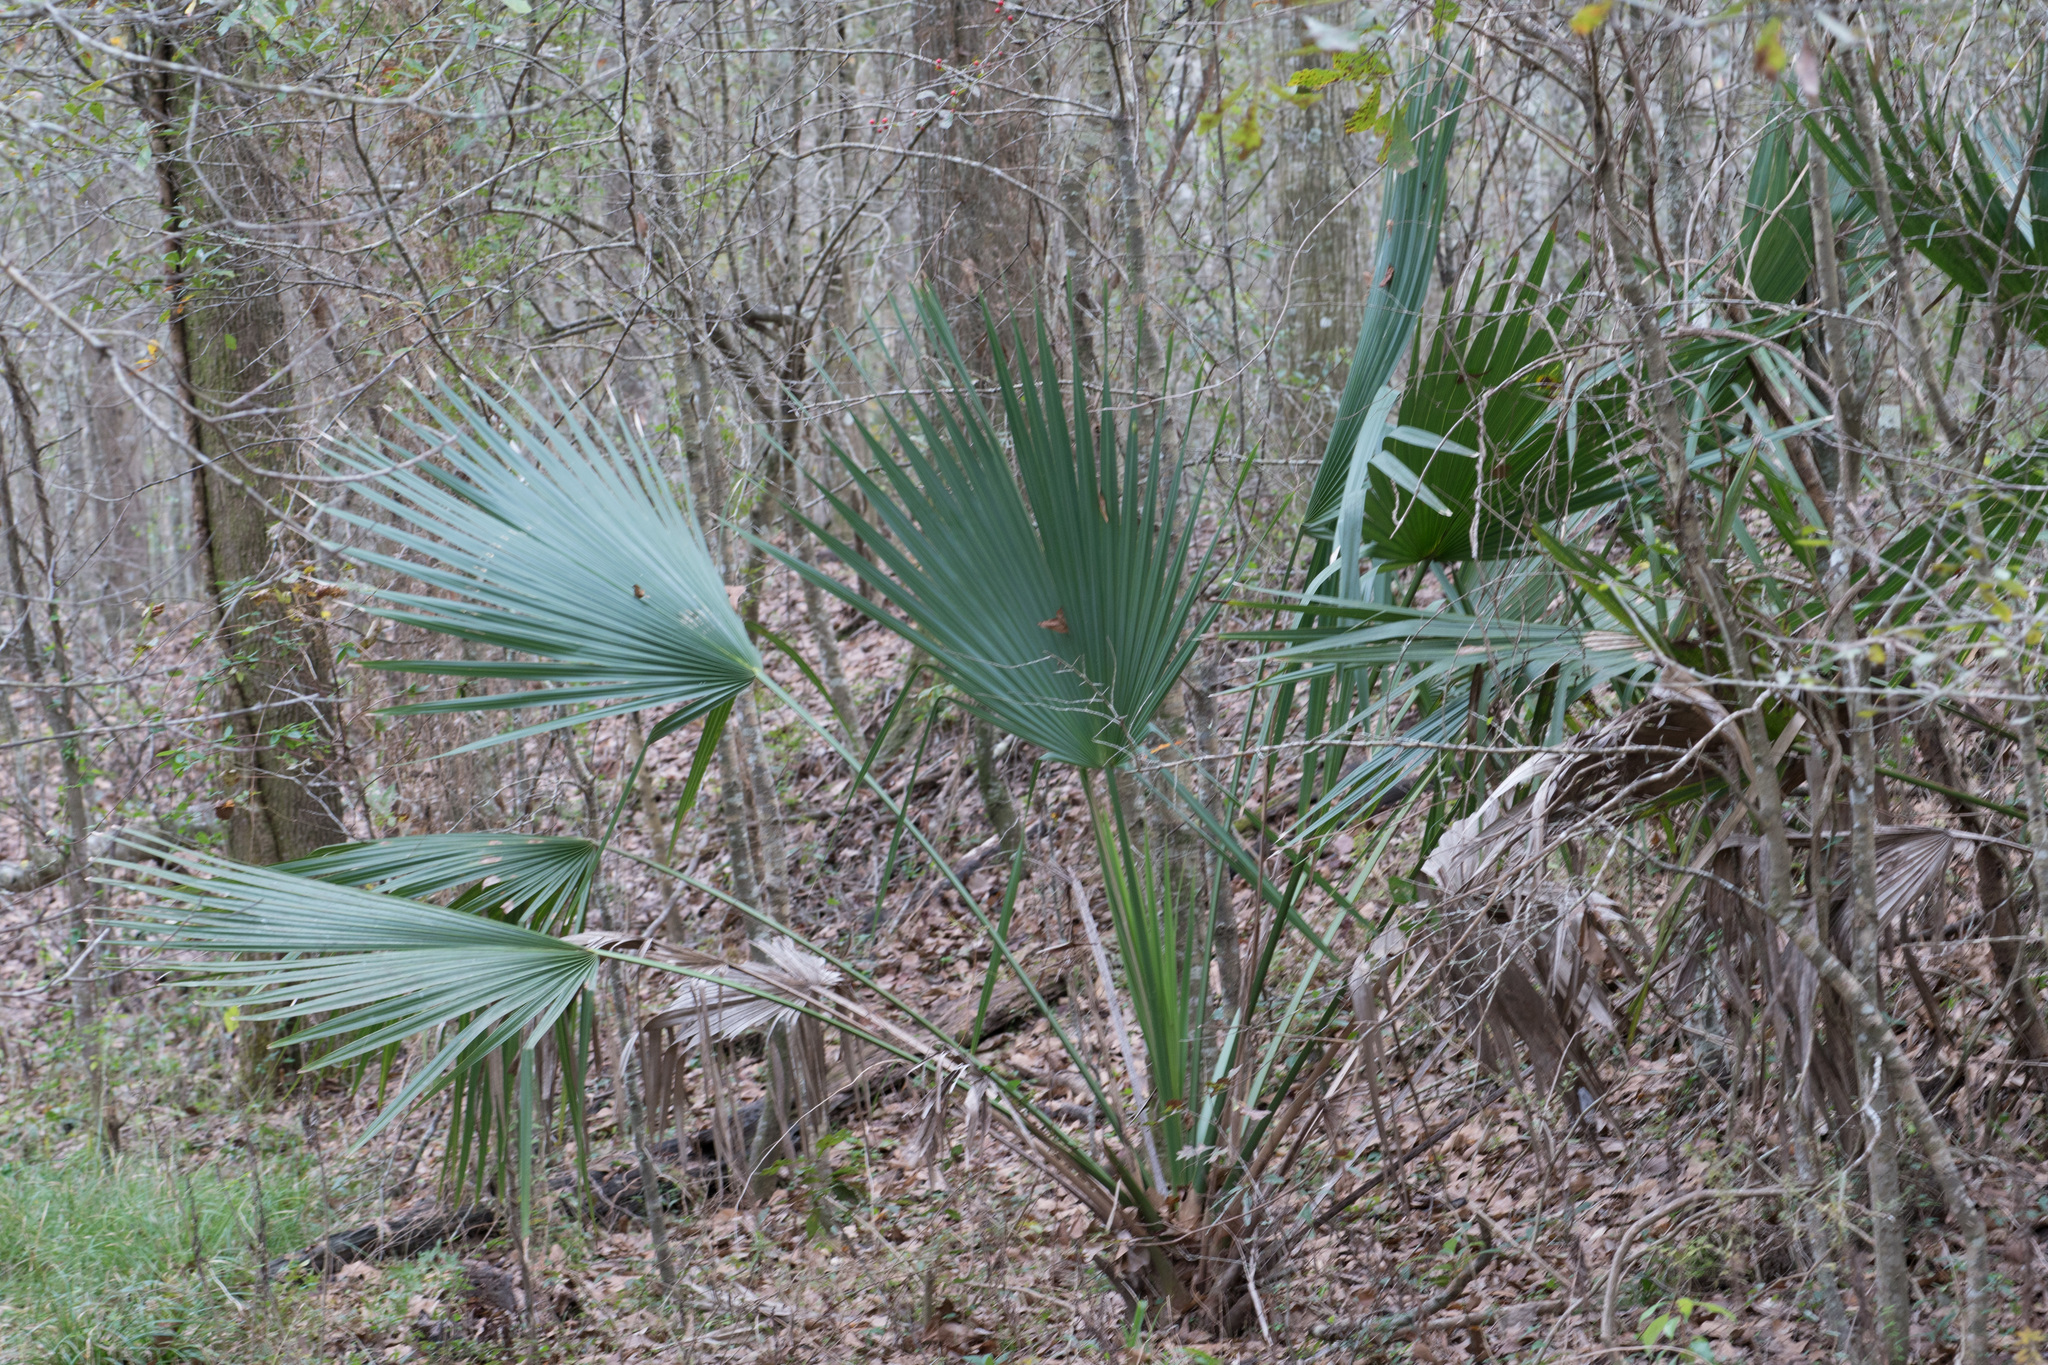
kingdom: Plantae
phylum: Tracheophyta
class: Liliopsida
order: Arecales
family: Arecaceae
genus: Sabal
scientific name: Sabal minor
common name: Dwarf palmetto
